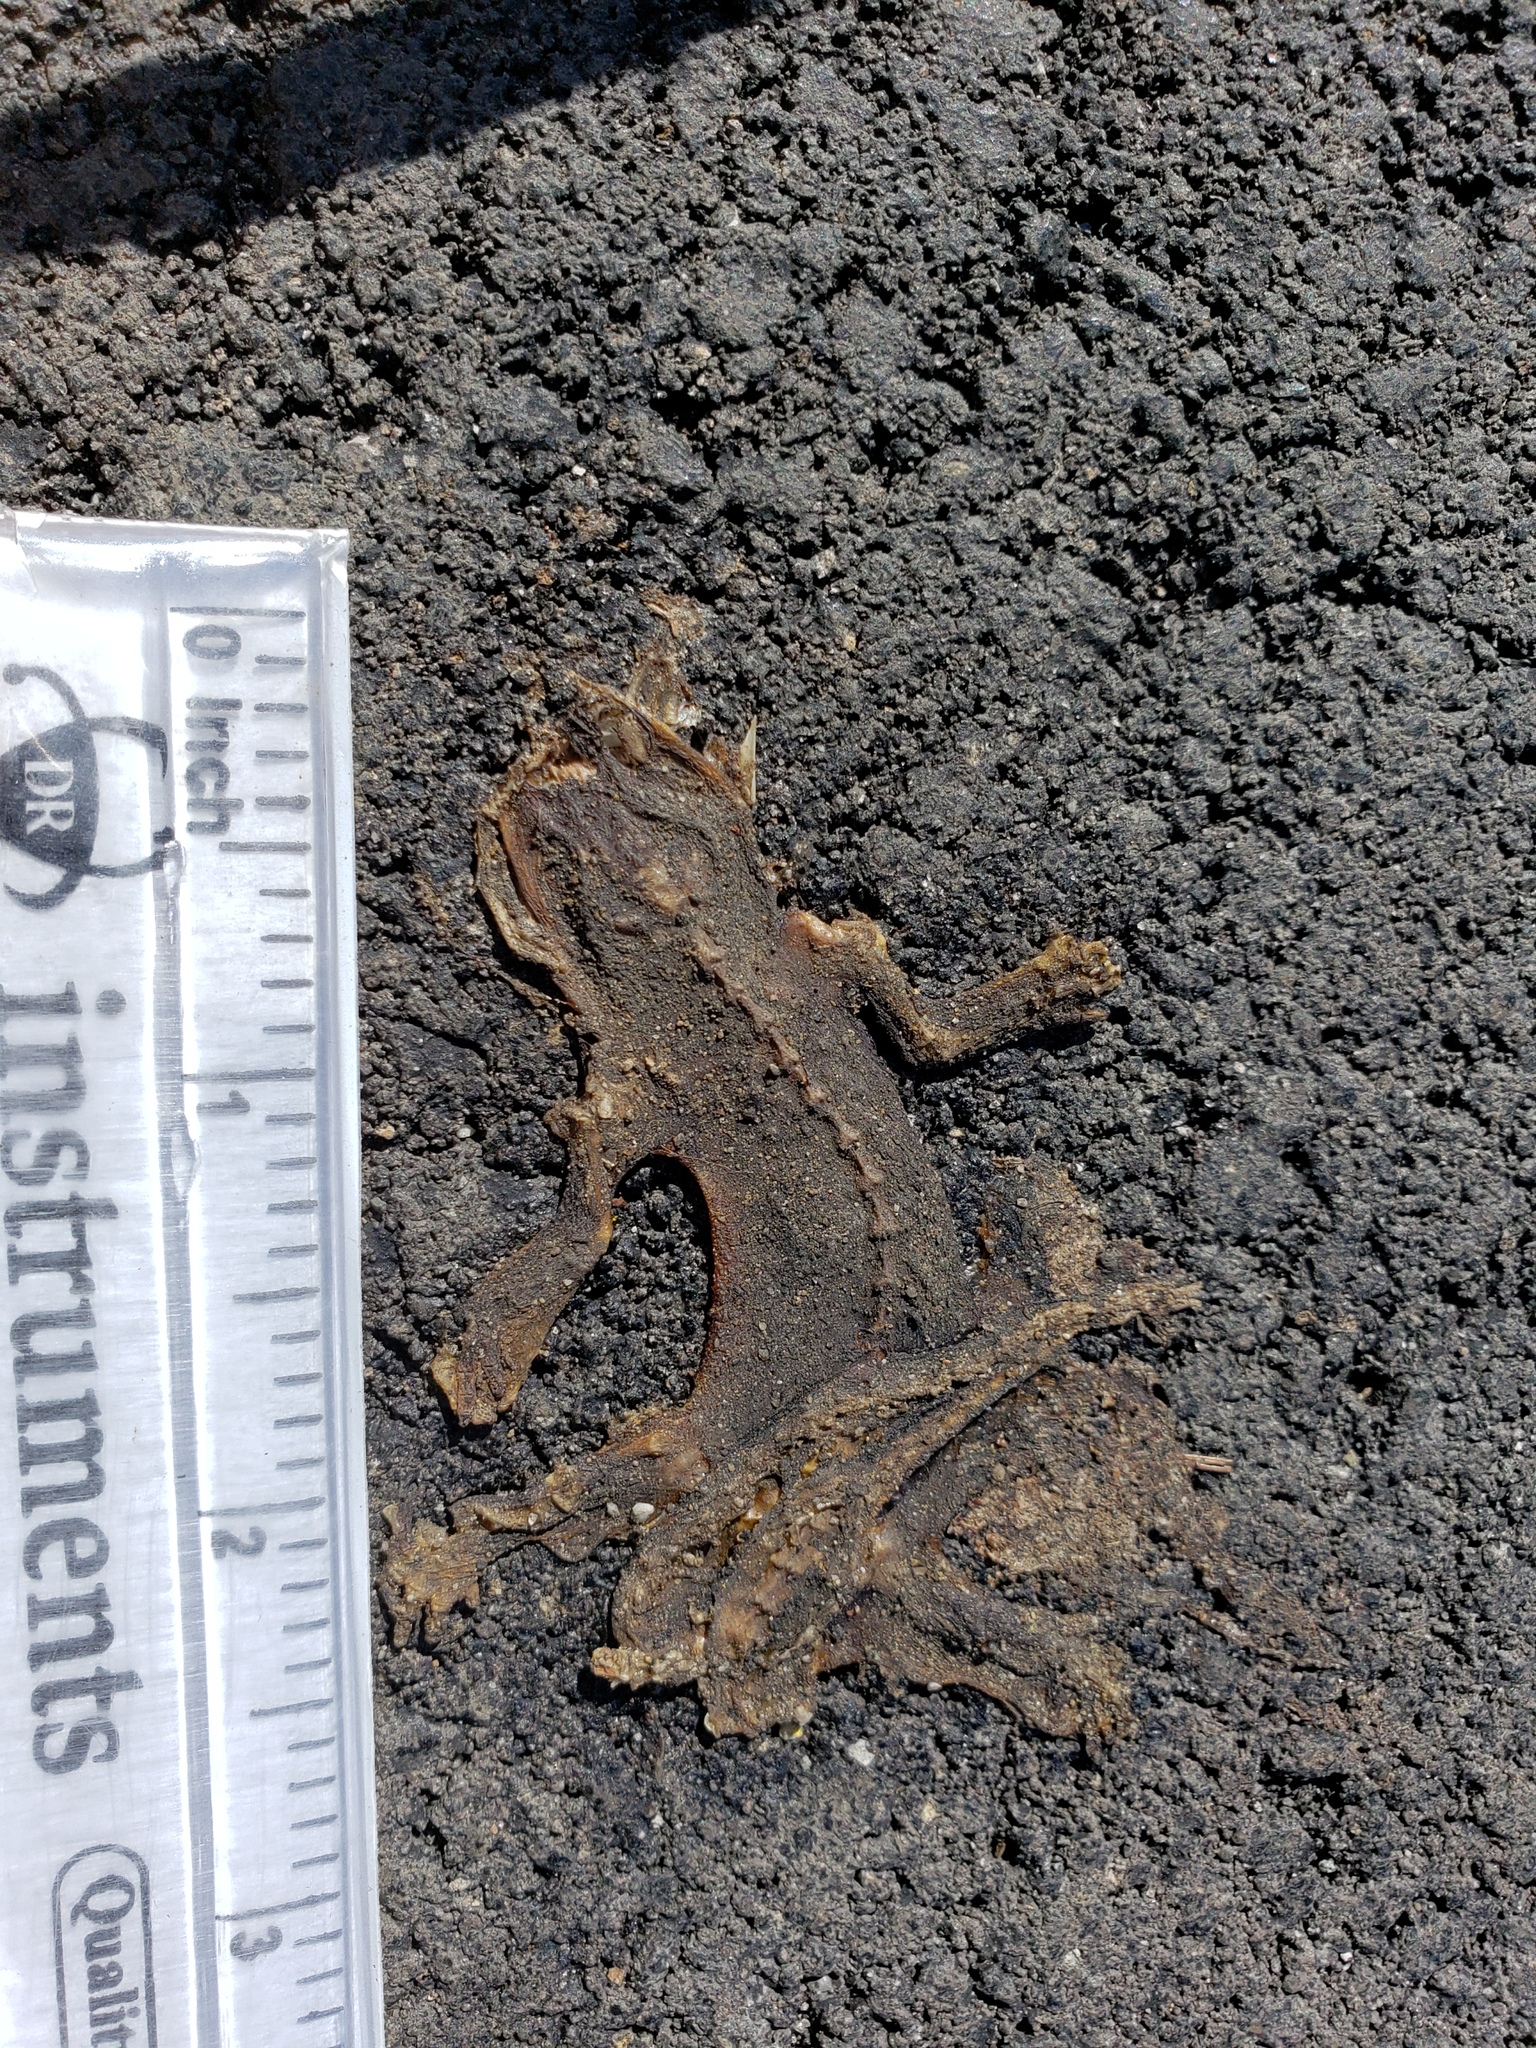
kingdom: Animalia
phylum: Chordata
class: Amphibia
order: Caudata
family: Salamandridae
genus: Taricha
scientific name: Taricha
